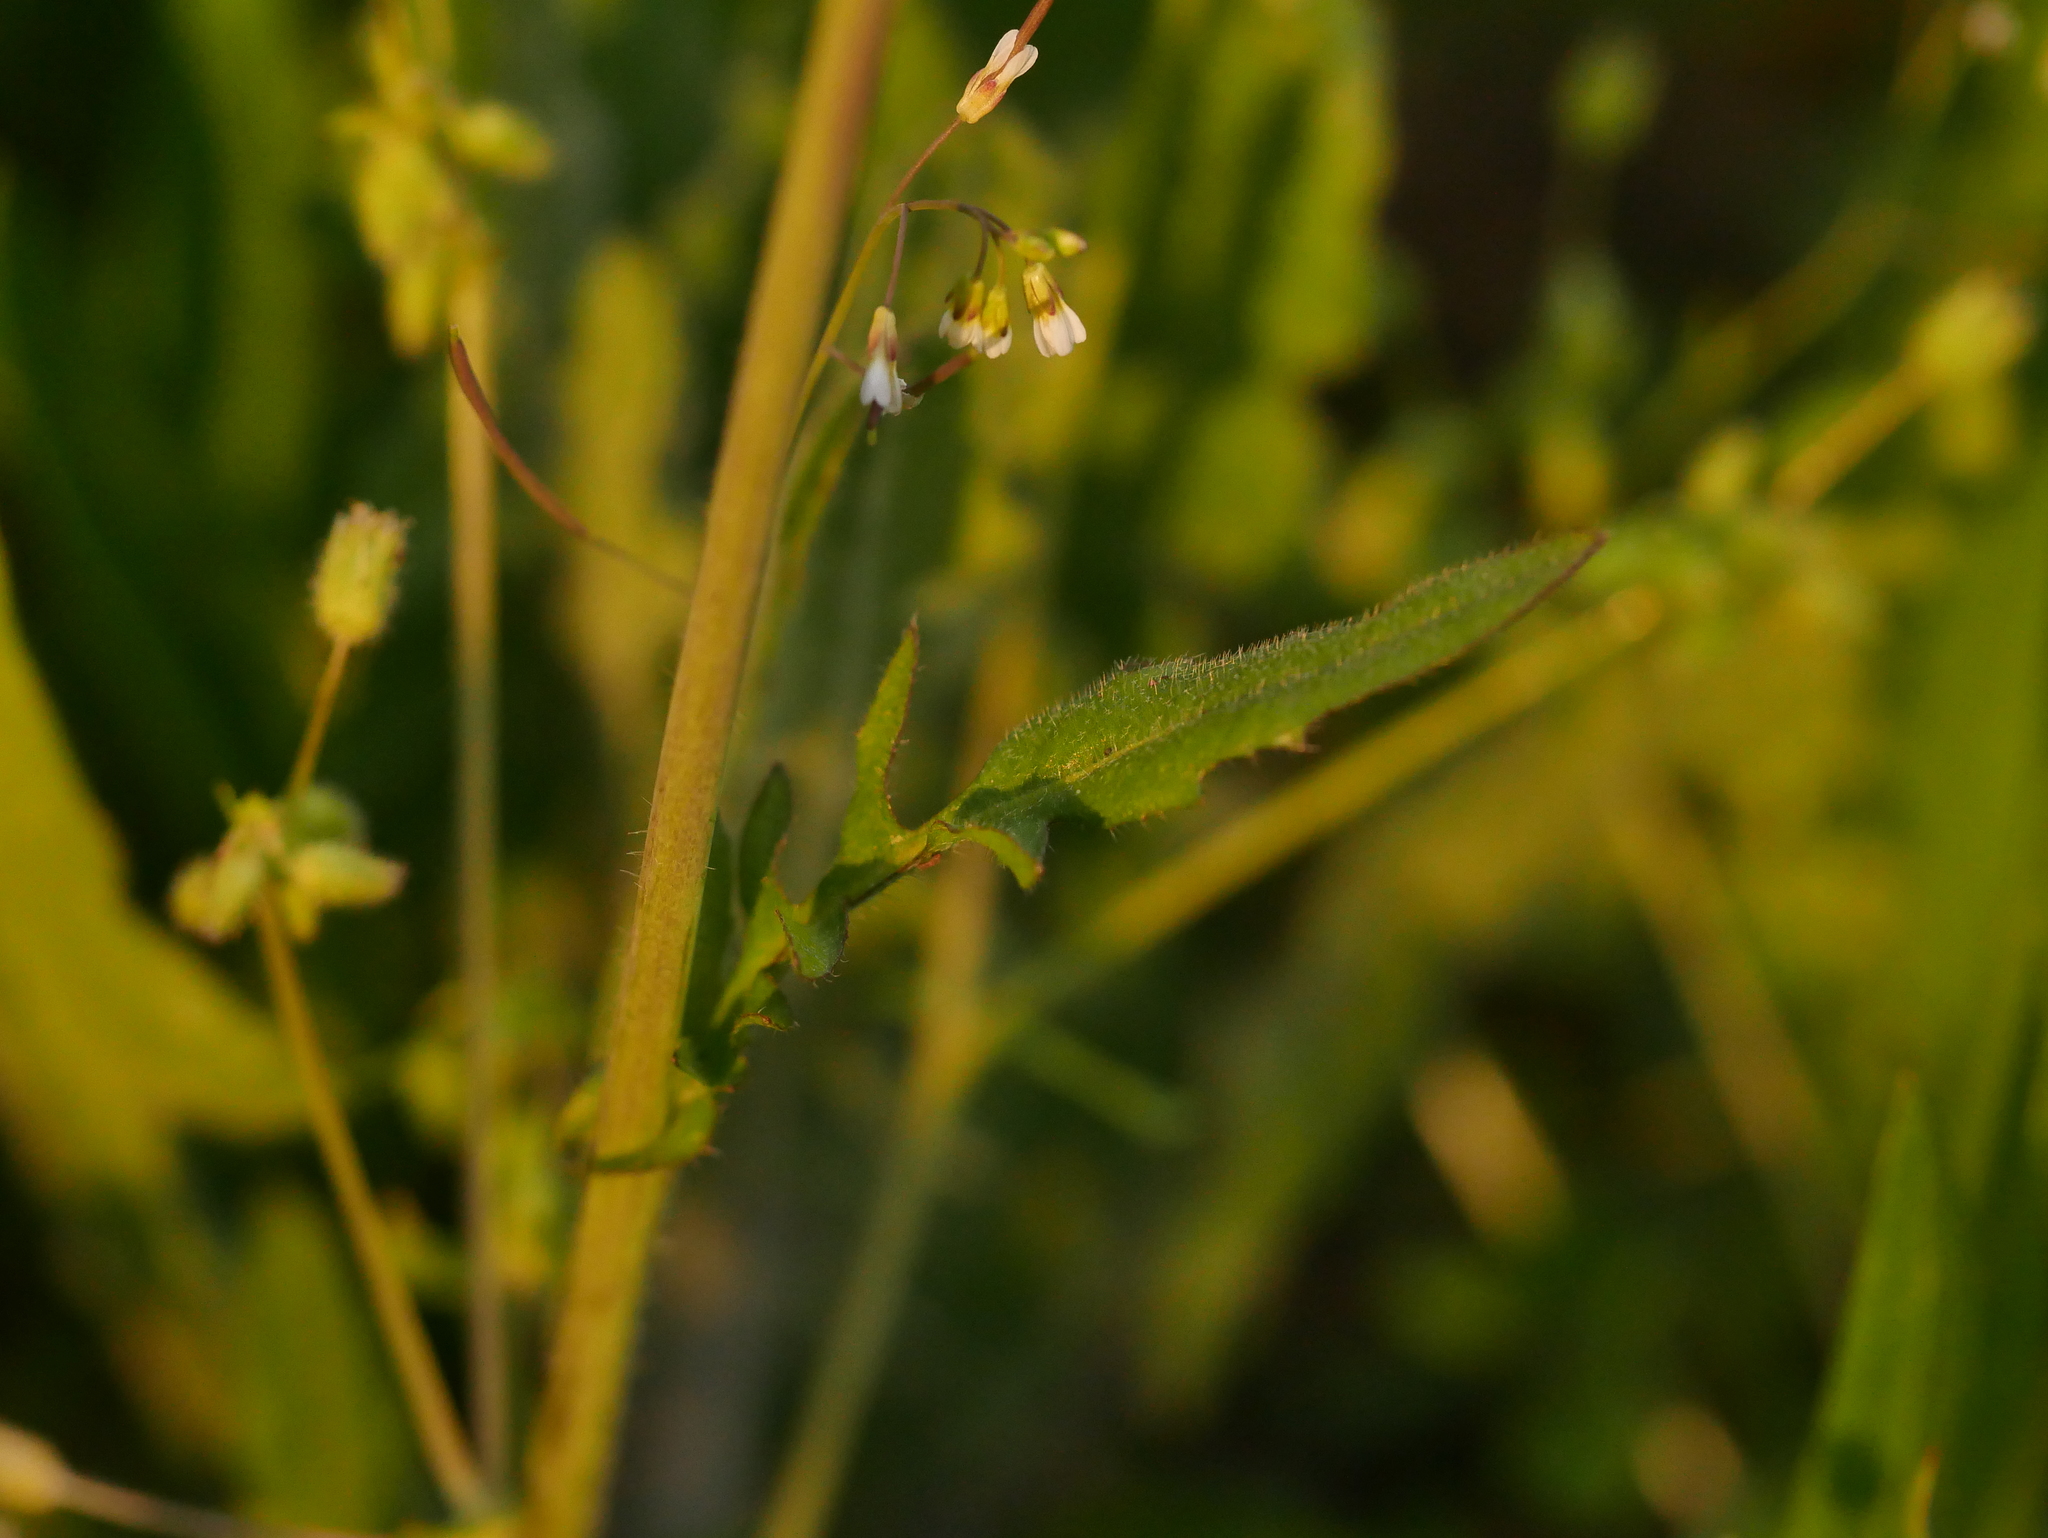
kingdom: Plantae
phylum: Tracheophyta
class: Magnoliopsida
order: Brassicales
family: Brassicaceae
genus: Capsella
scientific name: Capsella bursa-pastoris
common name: Shepherd's purse
